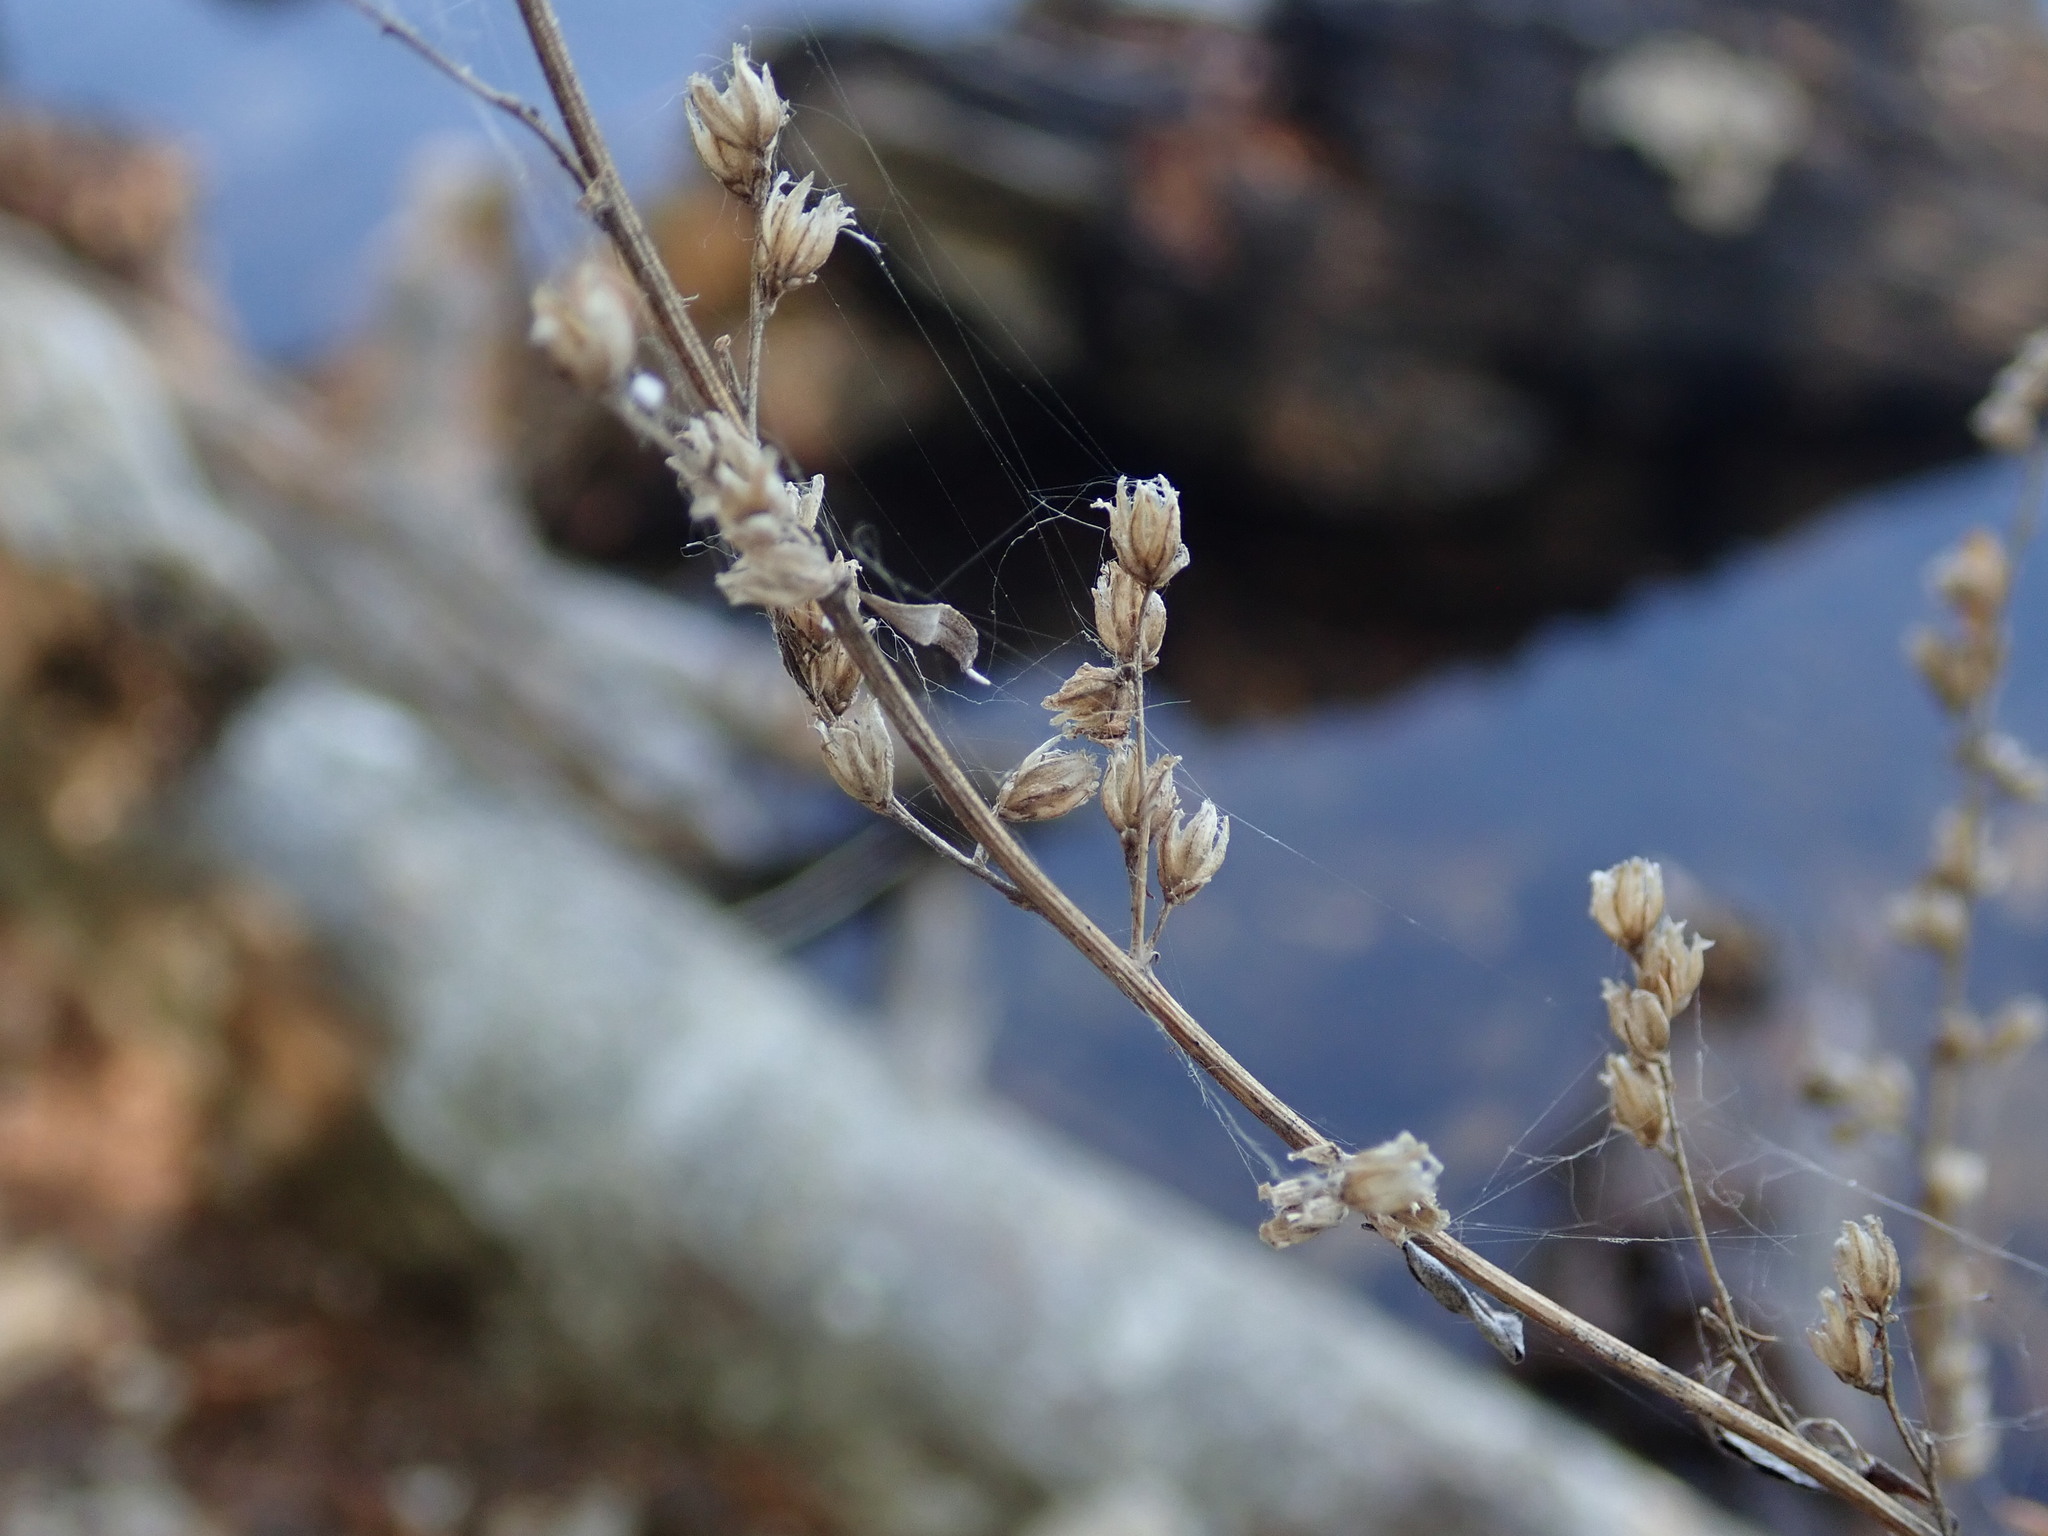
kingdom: Plantae
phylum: Tracheophyta
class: Magnoliopsida
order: Asterales
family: Asteraceae
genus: Artemisia
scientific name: Artemisia vulgaris
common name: Mugwort
